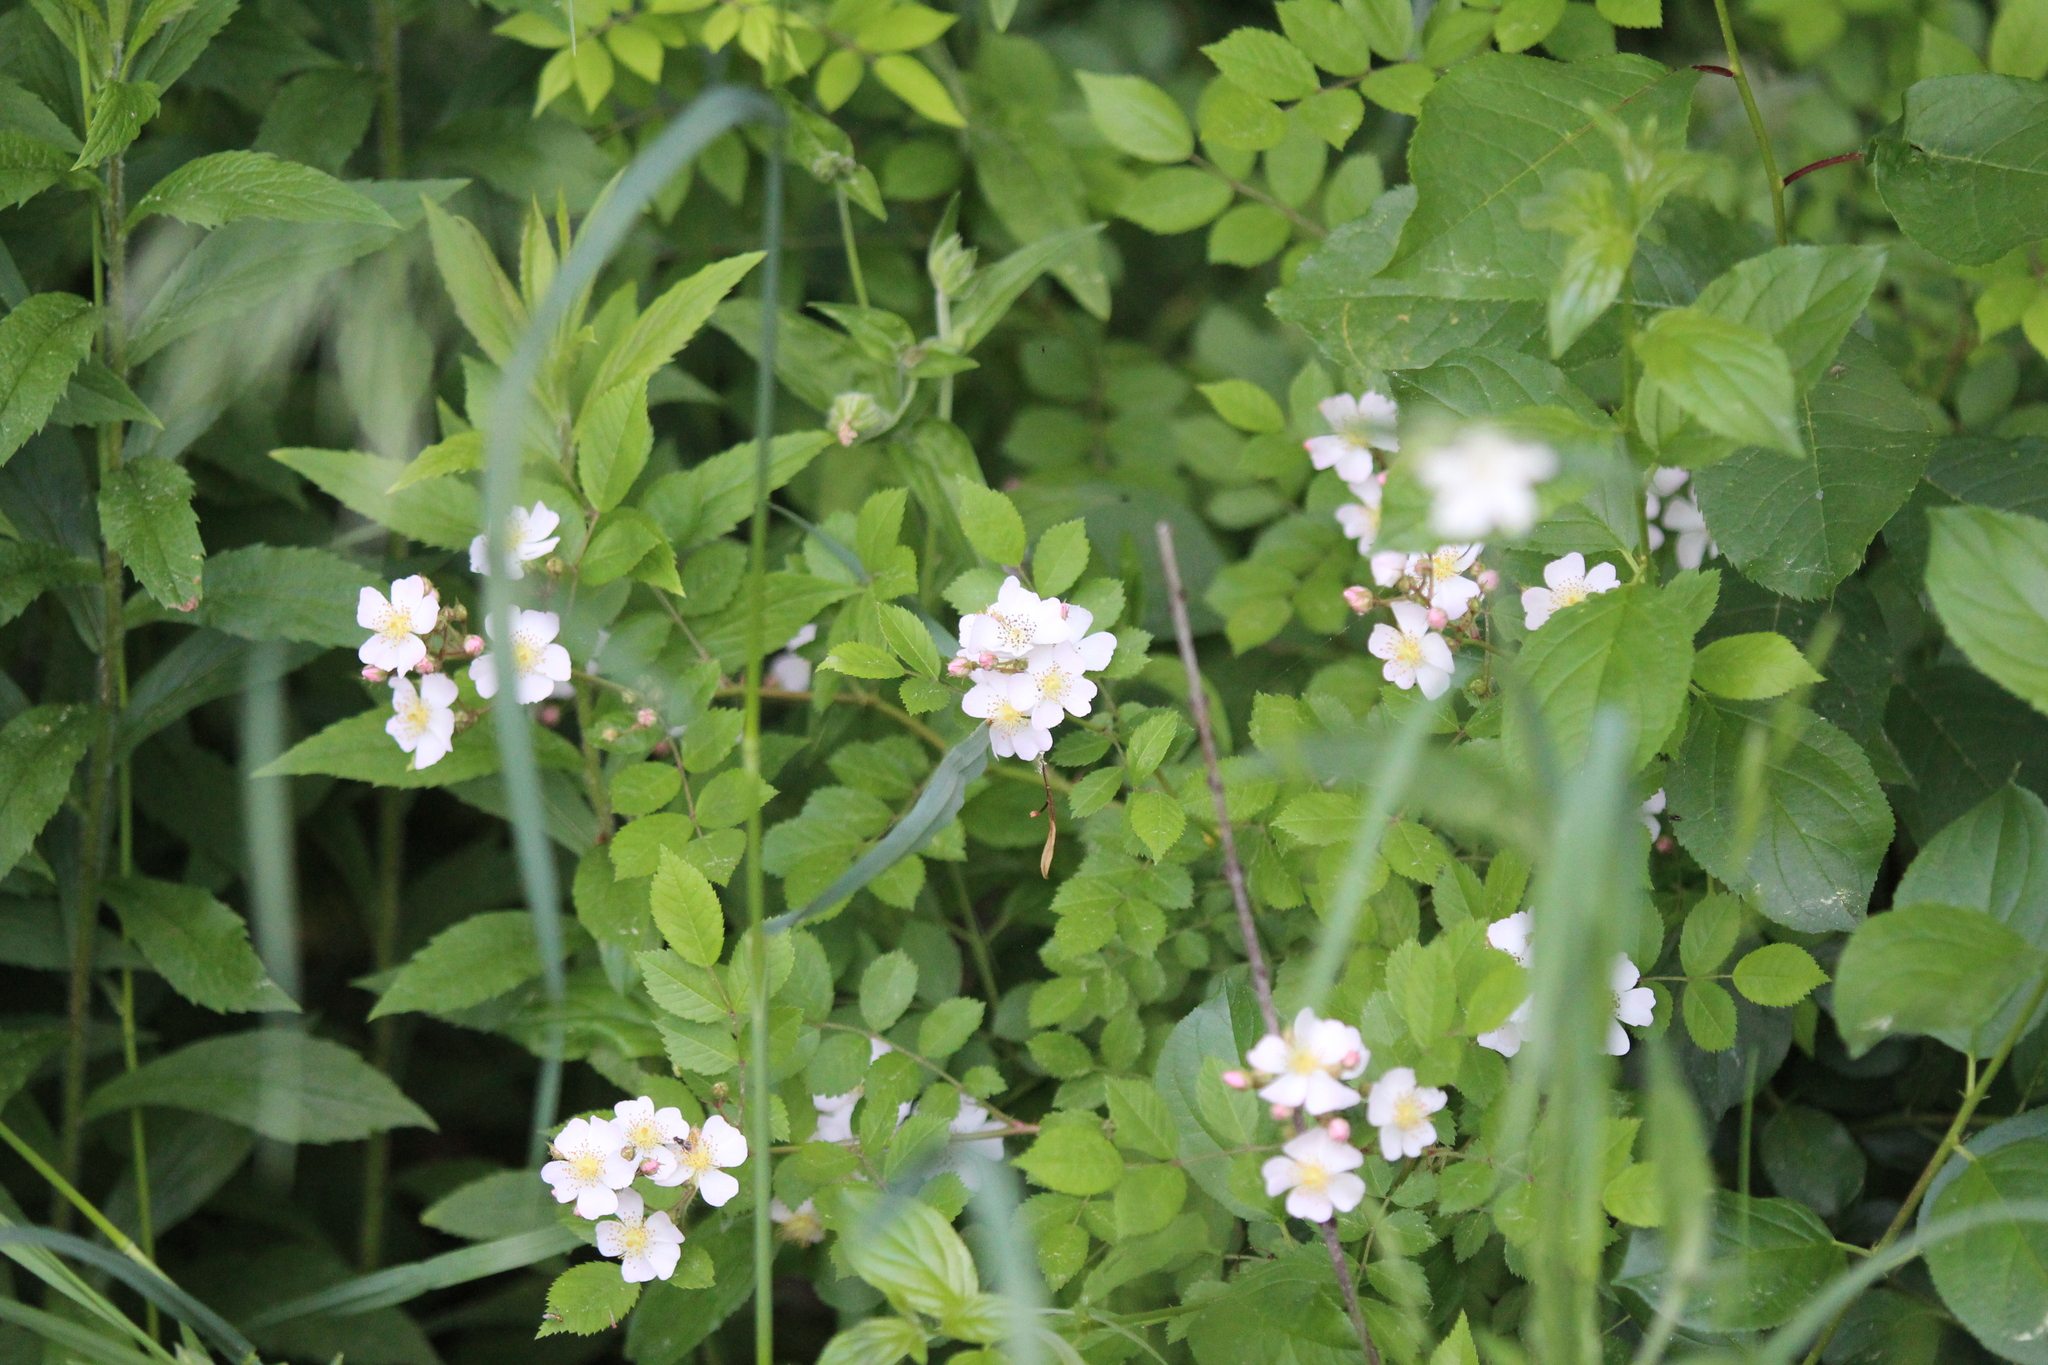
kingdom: Plantae
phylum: Tracheophyta
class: Magnoliopsida
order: Rosales
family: Rosaceae
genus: Rosa
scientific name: Rosa multiflora
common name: Multiflora rose
